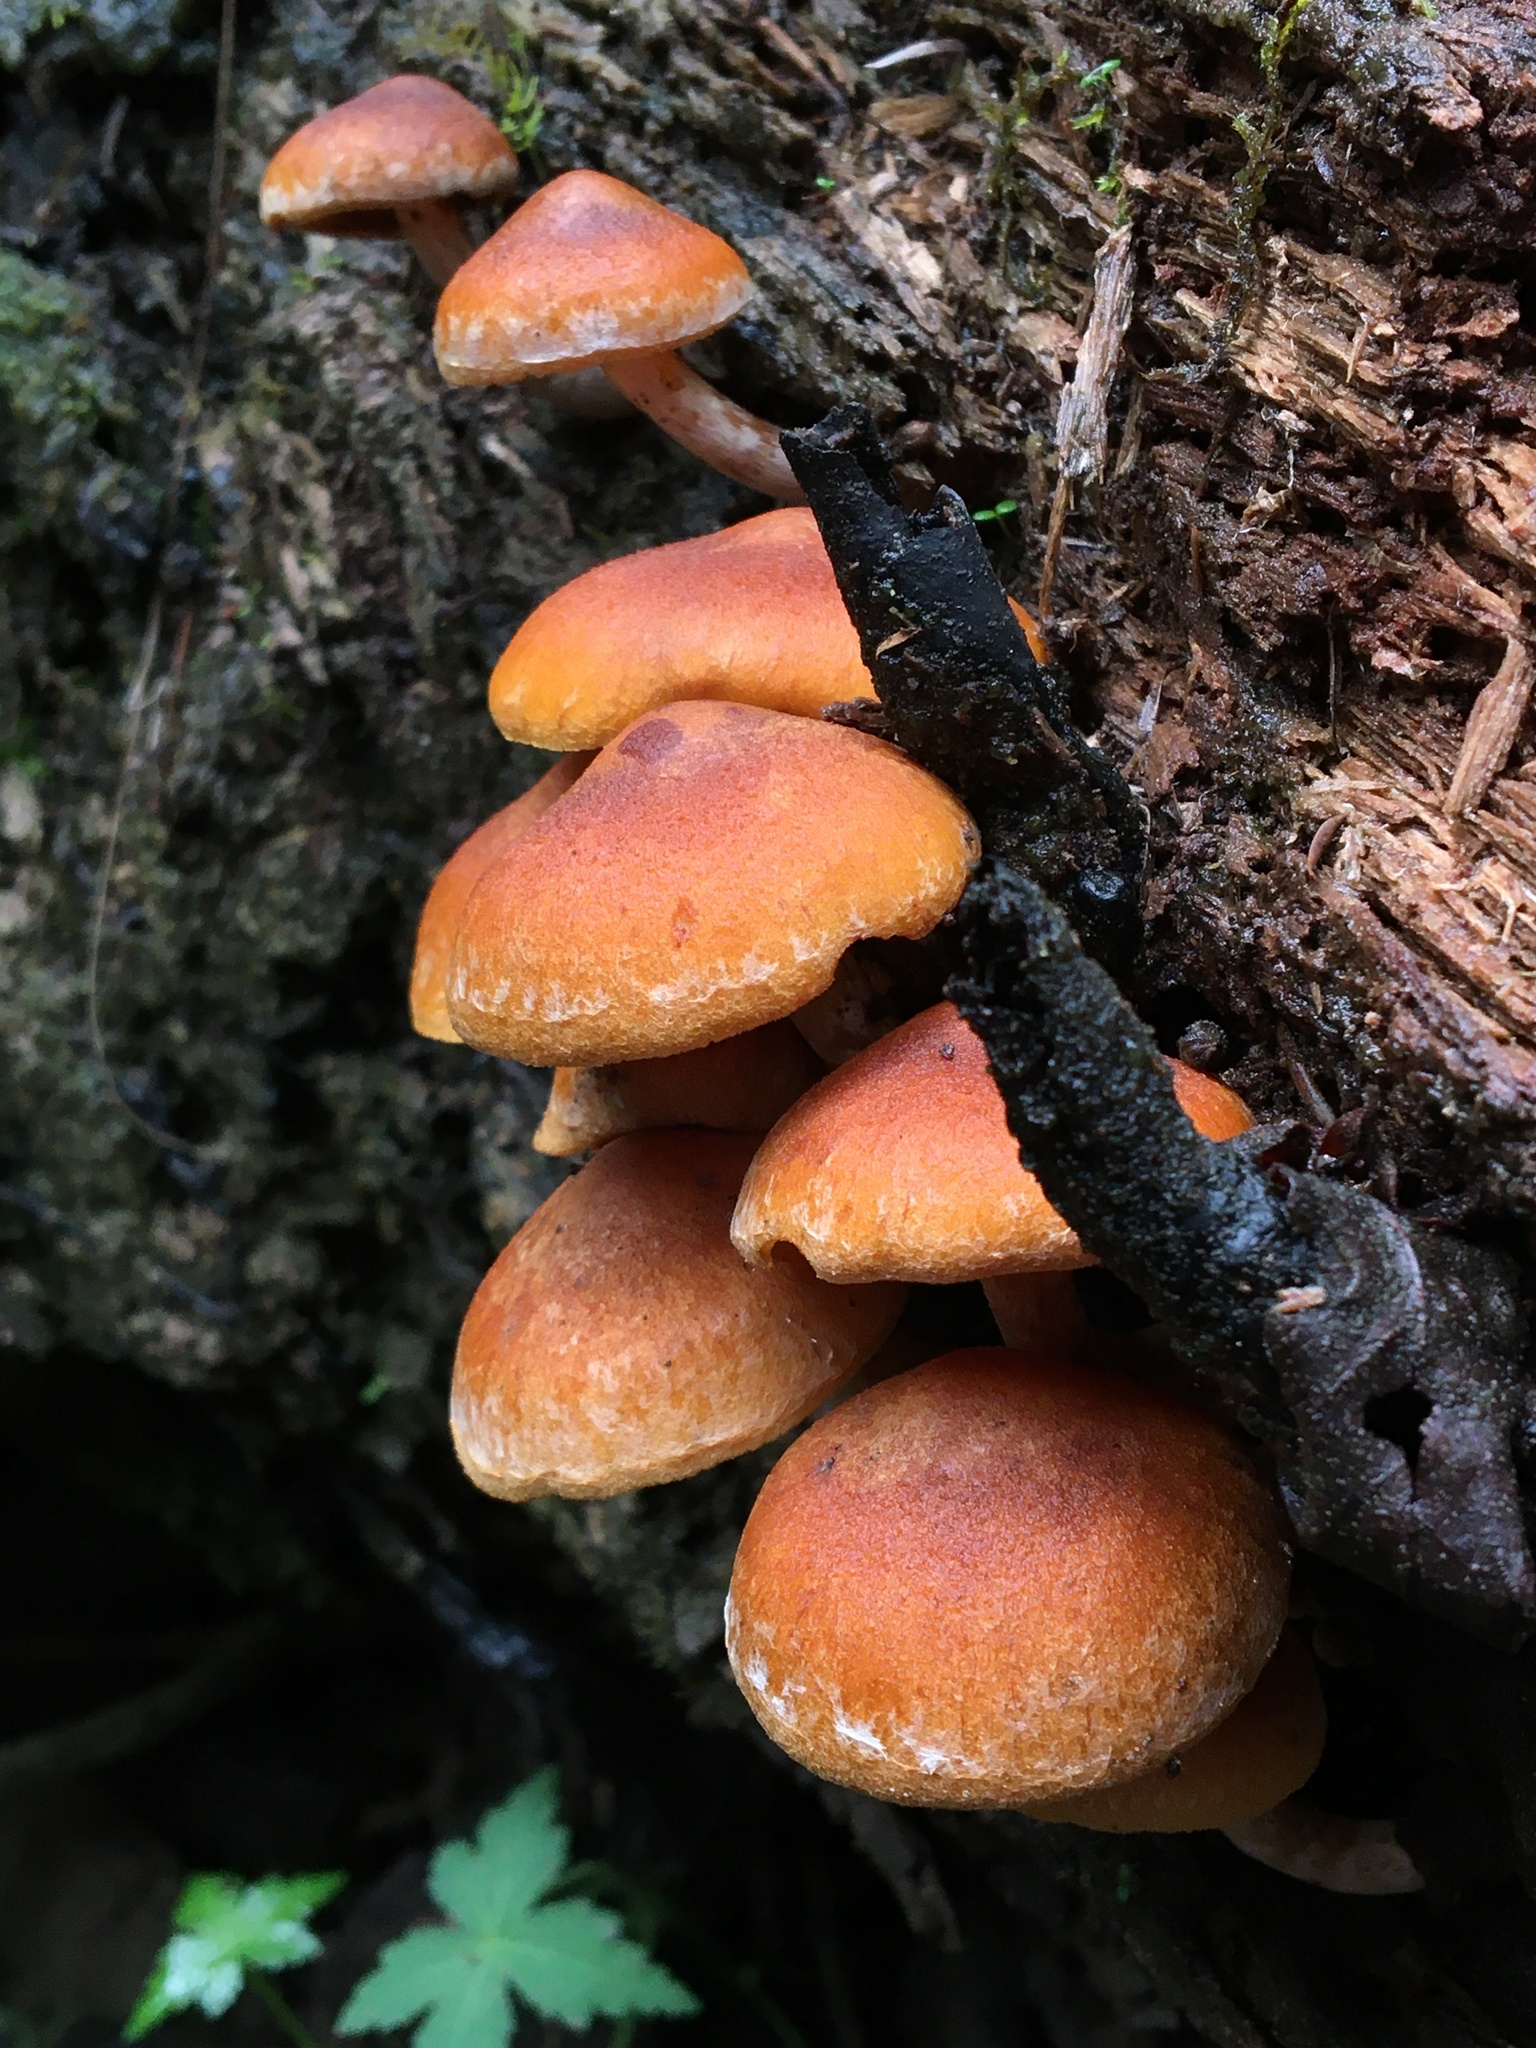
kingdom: Fungi
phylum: Basidiomycota
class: Agaricomycetes
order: Agaricales
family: Hymenogastraceae
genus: Gymnopilus
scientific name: Gymnopilus allantopus
